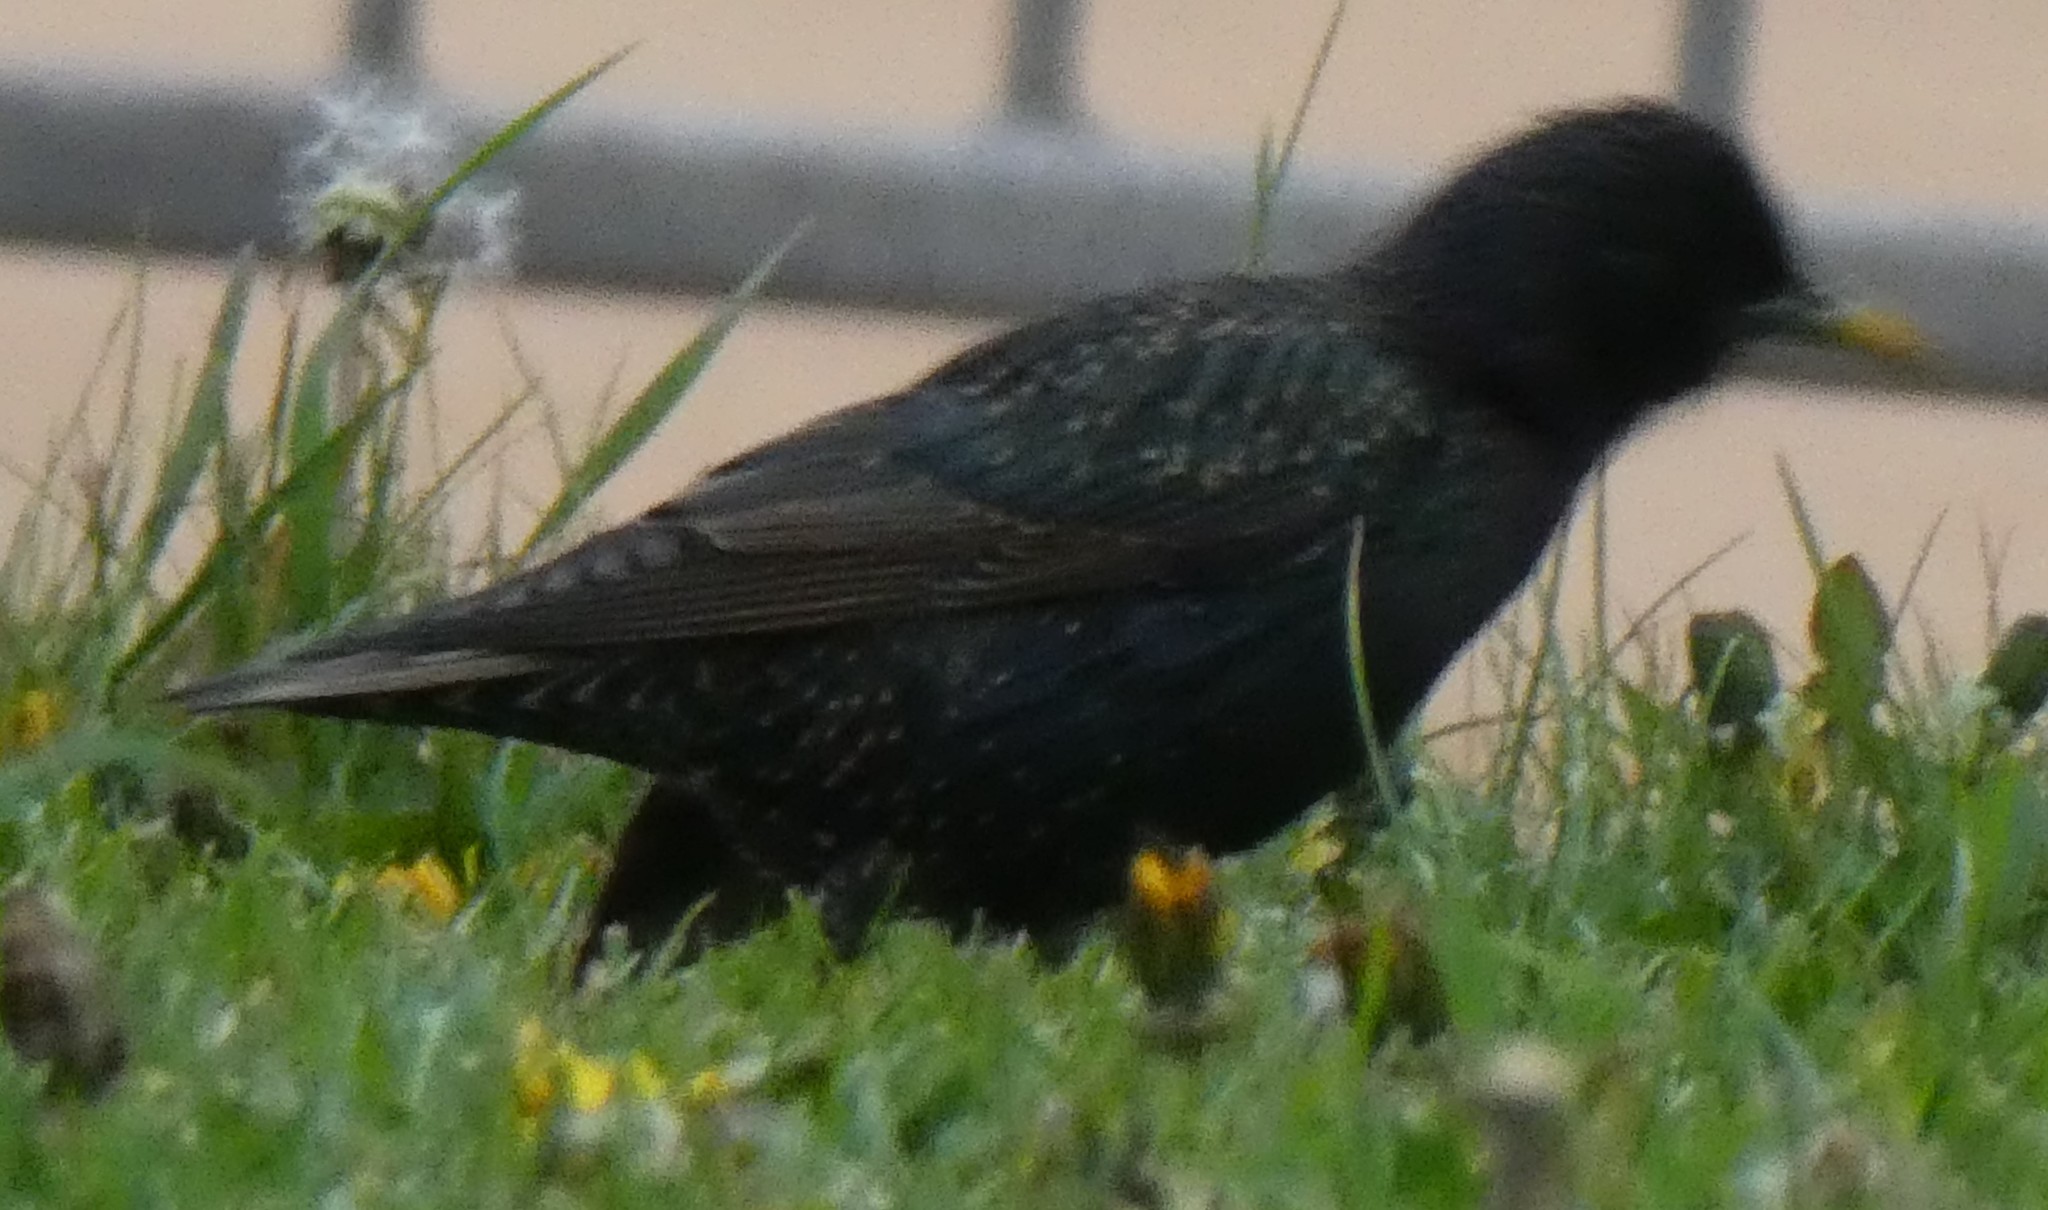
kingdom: Animalia
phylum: Chordata
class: Aves
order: Passeriformes
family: Sturnidae
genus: Sturnus
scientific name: Sturnus vulgaris
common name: Common starling
